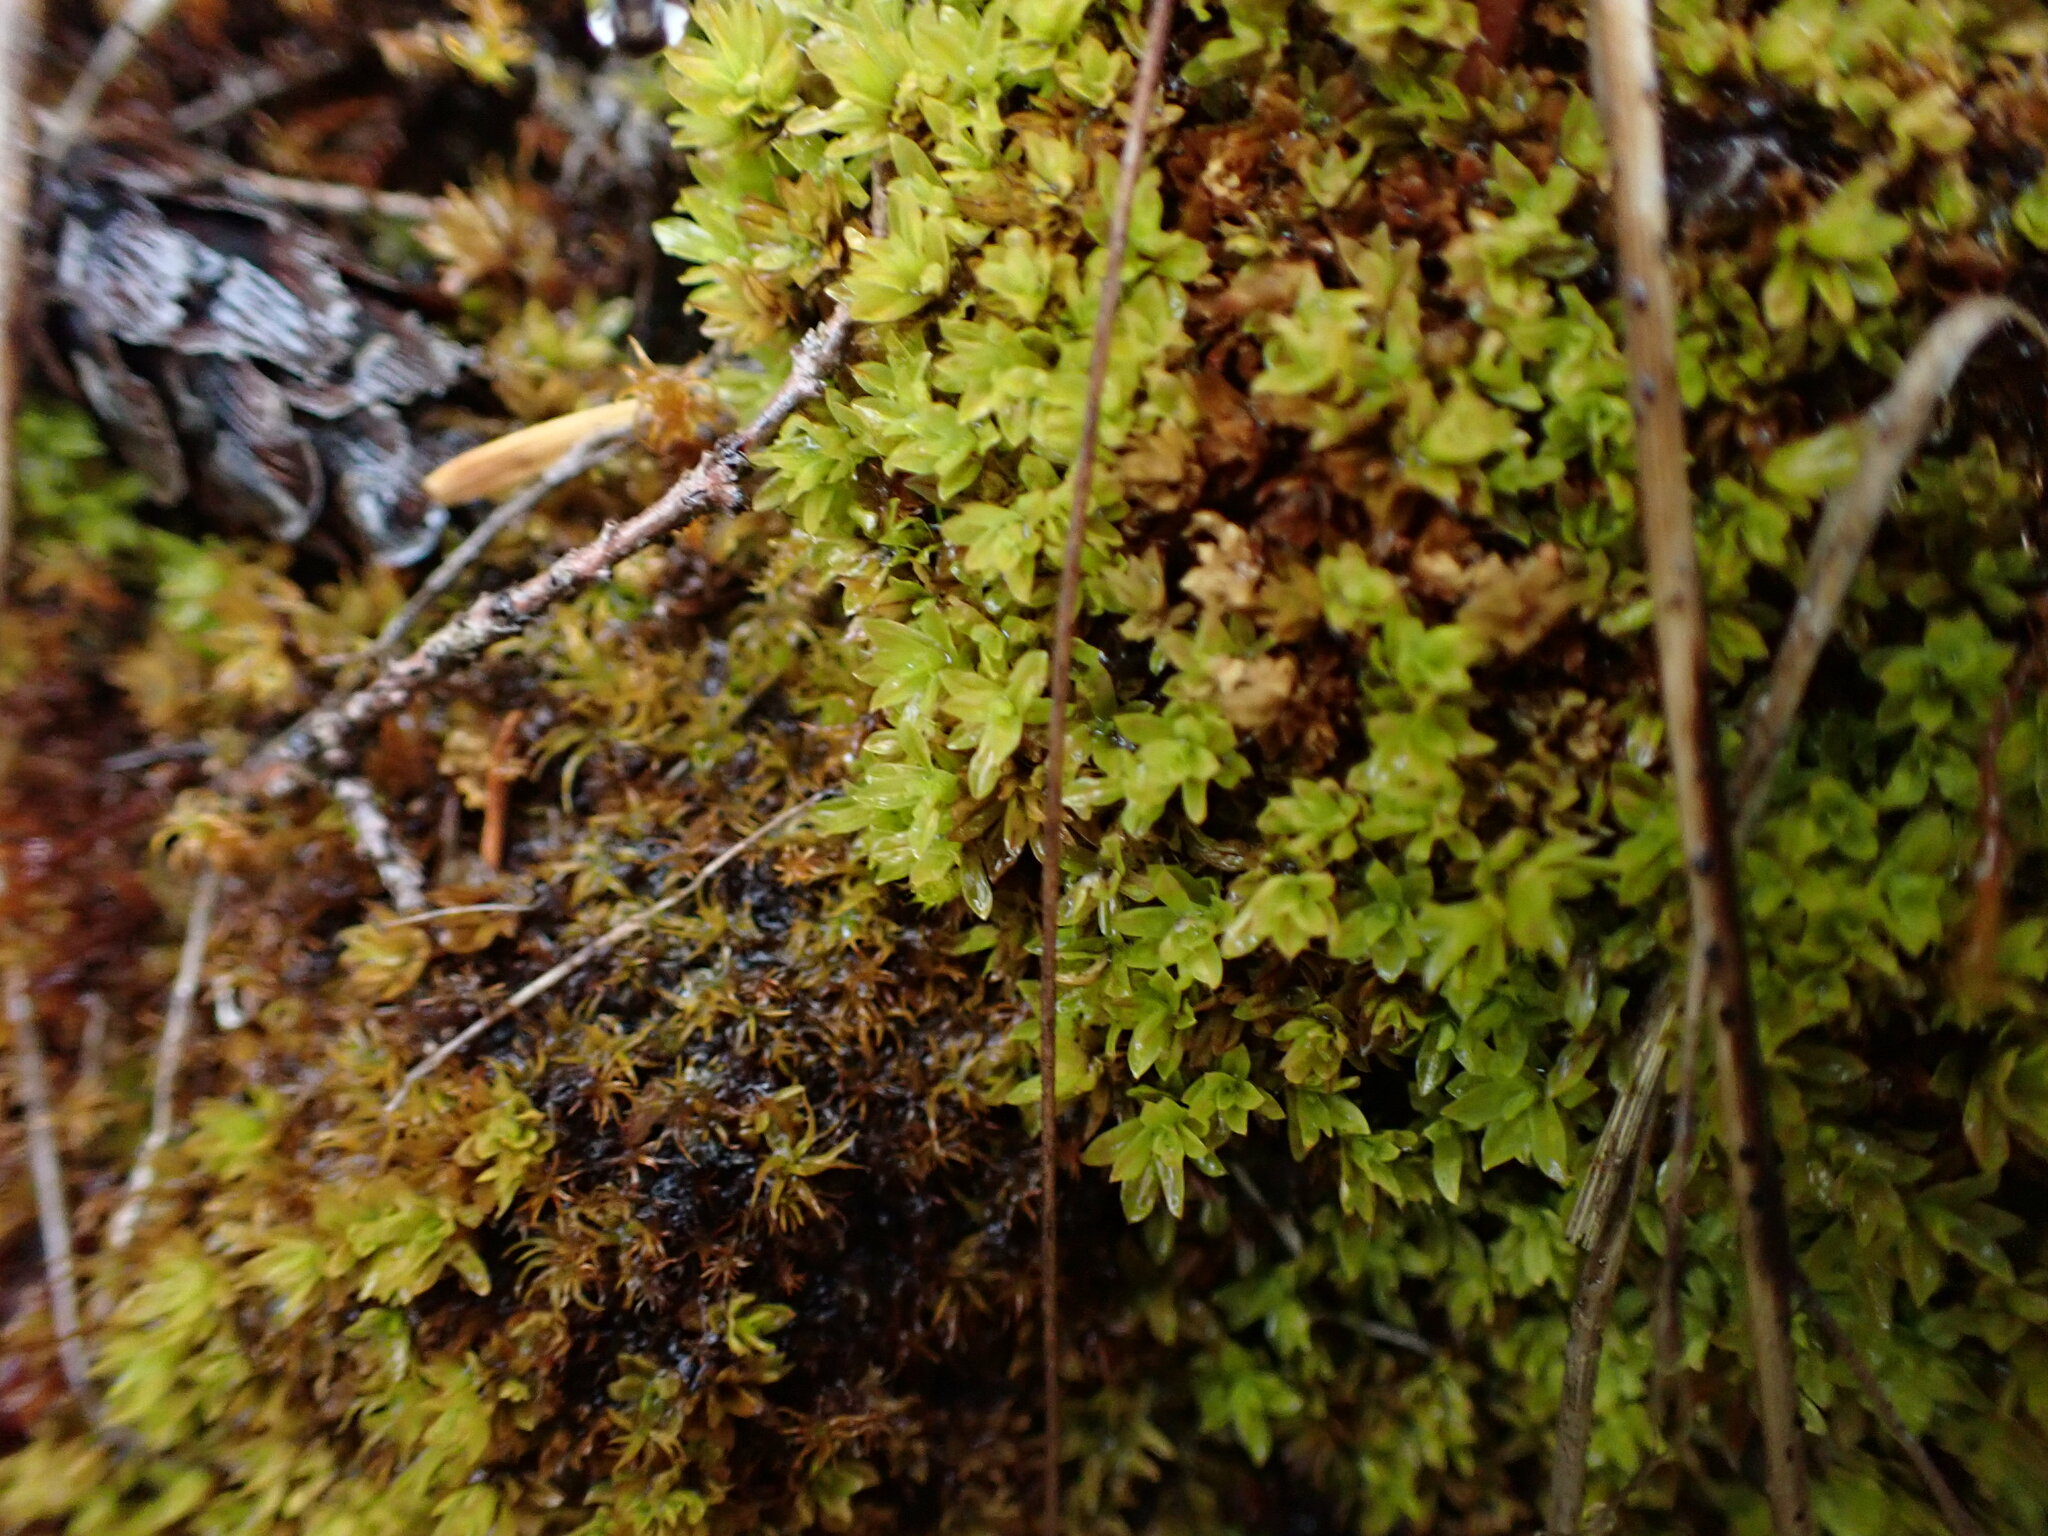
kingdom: Plantae
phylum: Bryophyta
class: Bryopsida
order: Encalyptales
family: Encalyptaceae
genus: Encalypta
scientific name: Encalypta procera
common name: Spiral extinguisher moss
